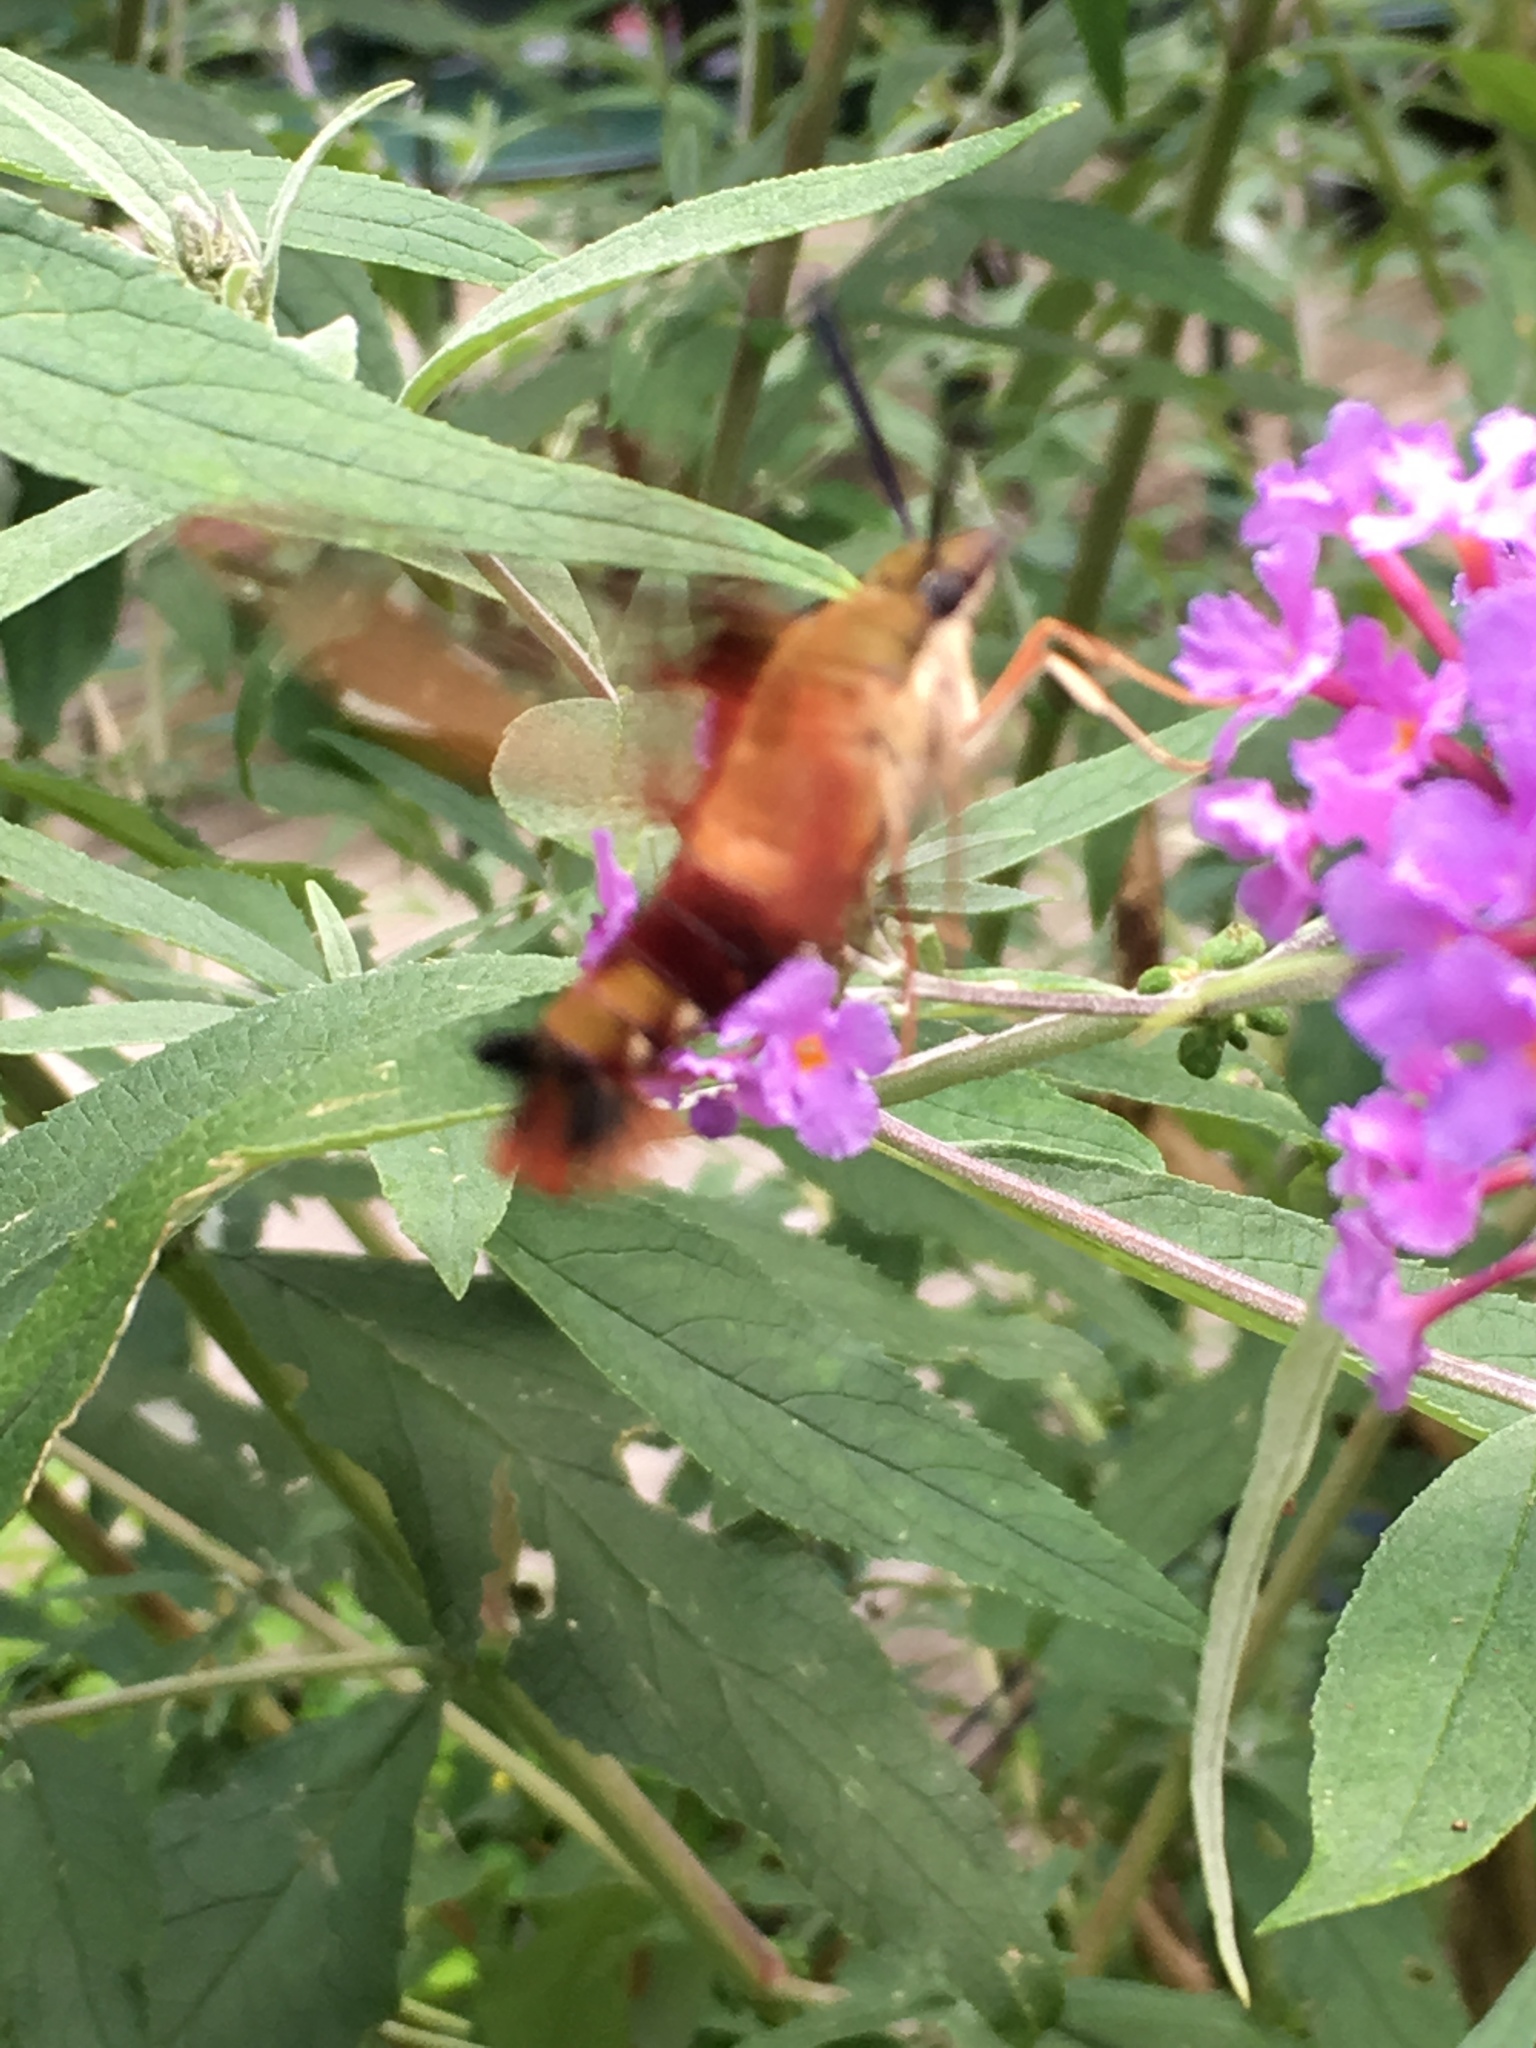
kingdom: Animalia
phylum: Arthropoda
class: Insecta
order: Lepidoptera
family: Sphingidae
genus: Hemaris
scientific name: Hemaris thysbe
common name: Common clear-wing
